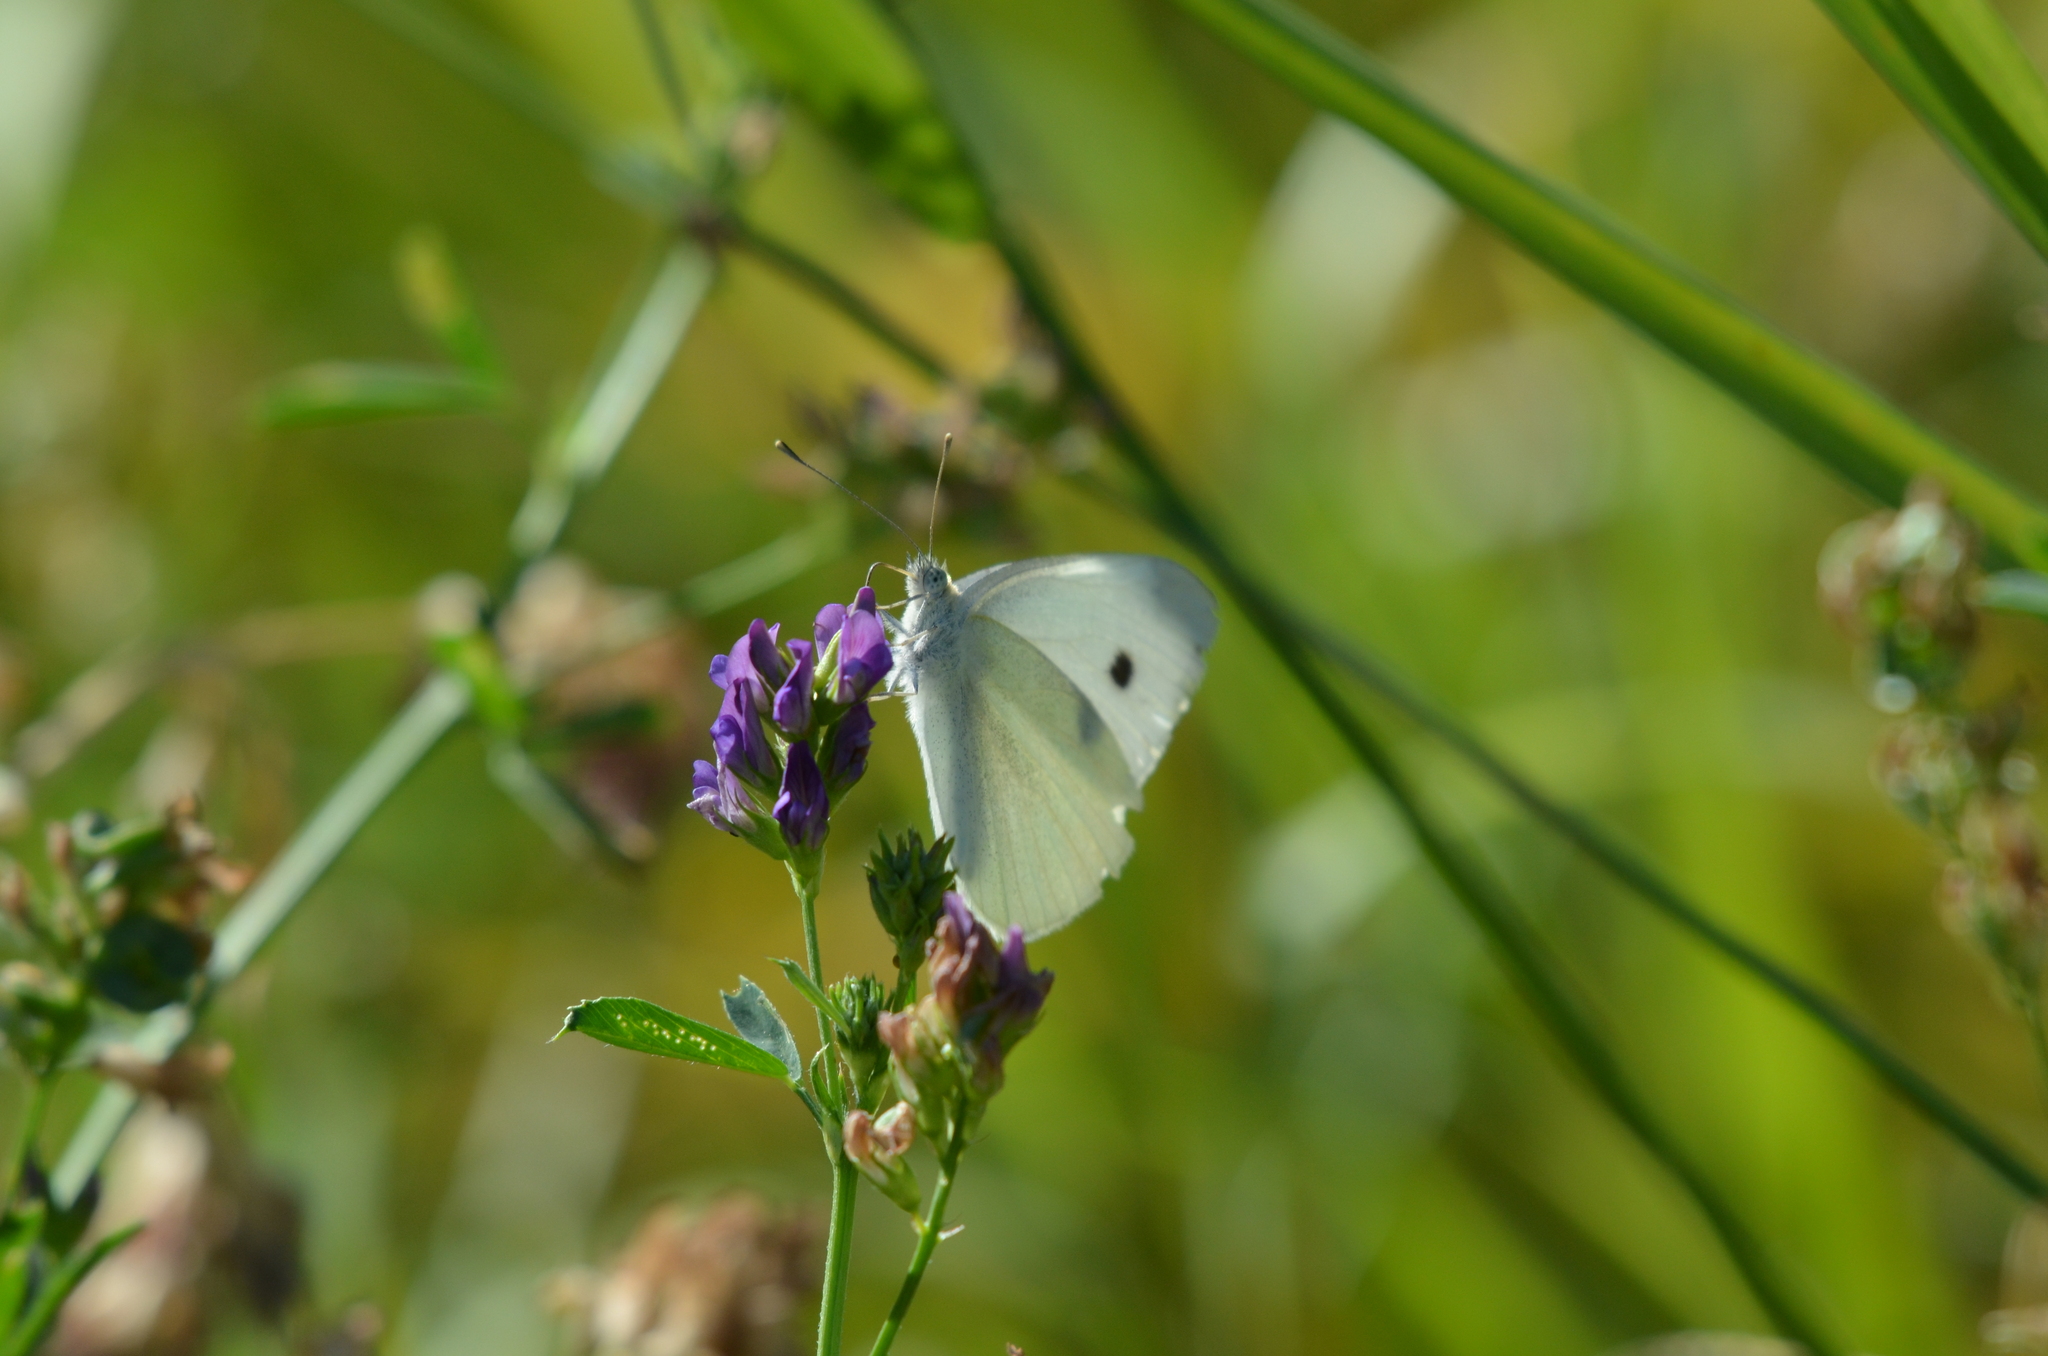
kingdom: Animalia
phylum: Arthropoda
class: Insecta
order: Lepidoptera
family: Pieridae
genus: Pieris
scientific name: Pieris rapae
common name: Small white
